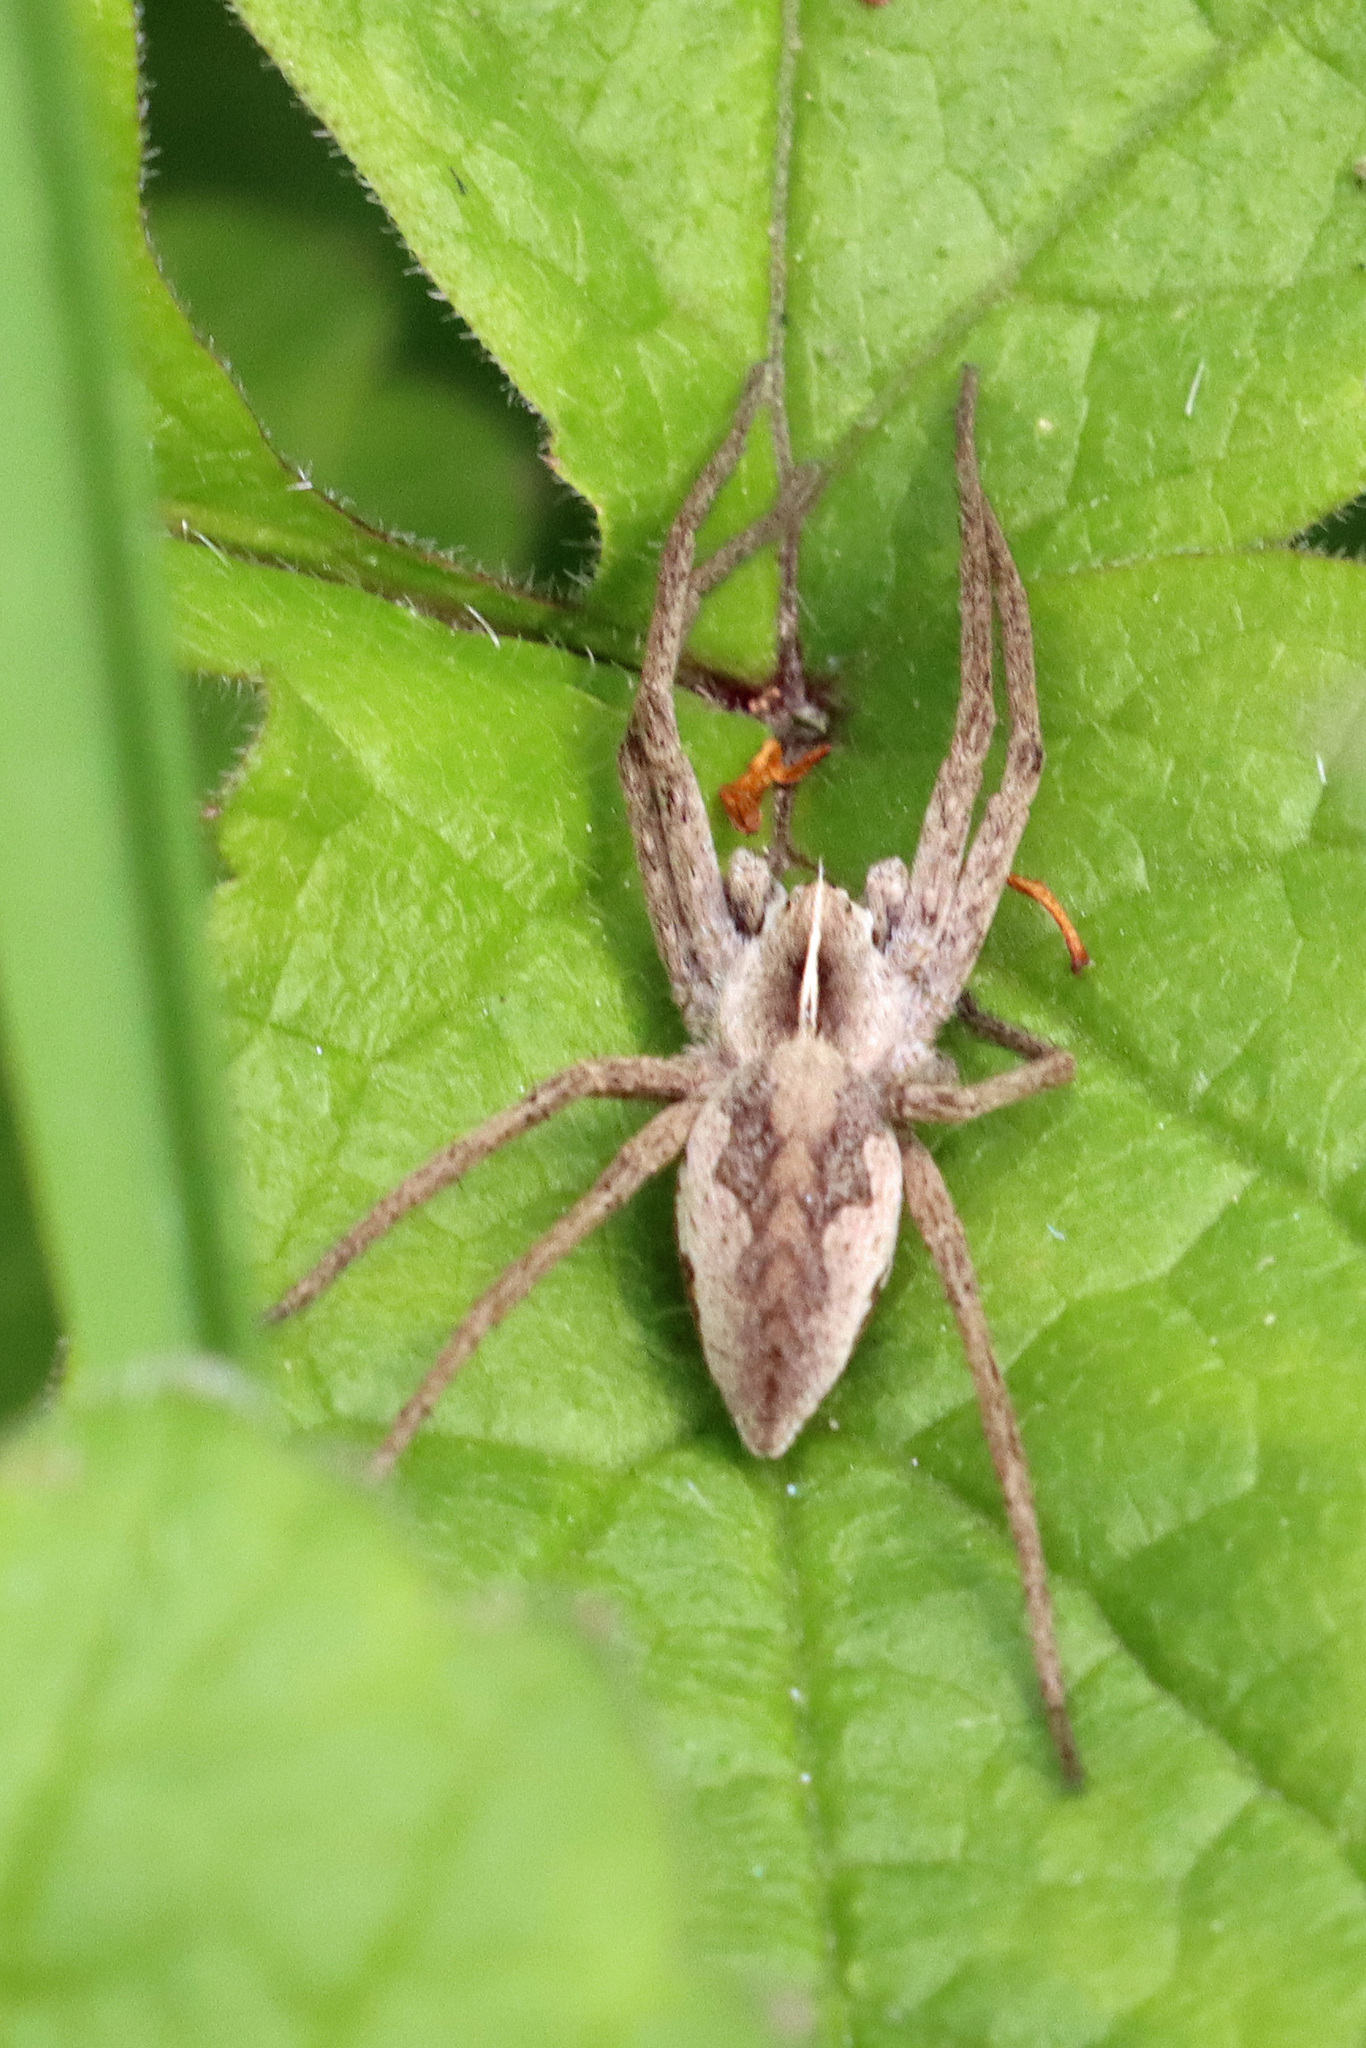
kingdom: Animalia
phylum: Arthropoda
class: Arachnida
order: Araneae
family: Pisauridae
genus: Pisaura
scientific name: Pisaura mirabilis
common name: Tent spider
